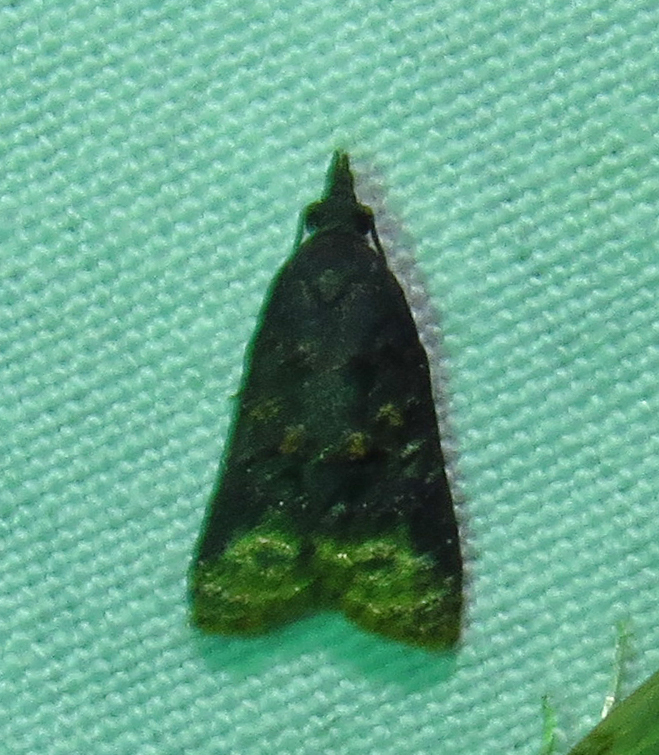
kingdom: Animalia
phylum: Arthropoda
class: Insecta
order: Lepidoptera
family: Tortricidae
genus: Platynota
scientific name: Platynota flavedana
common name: Black-shaded platynota moth
